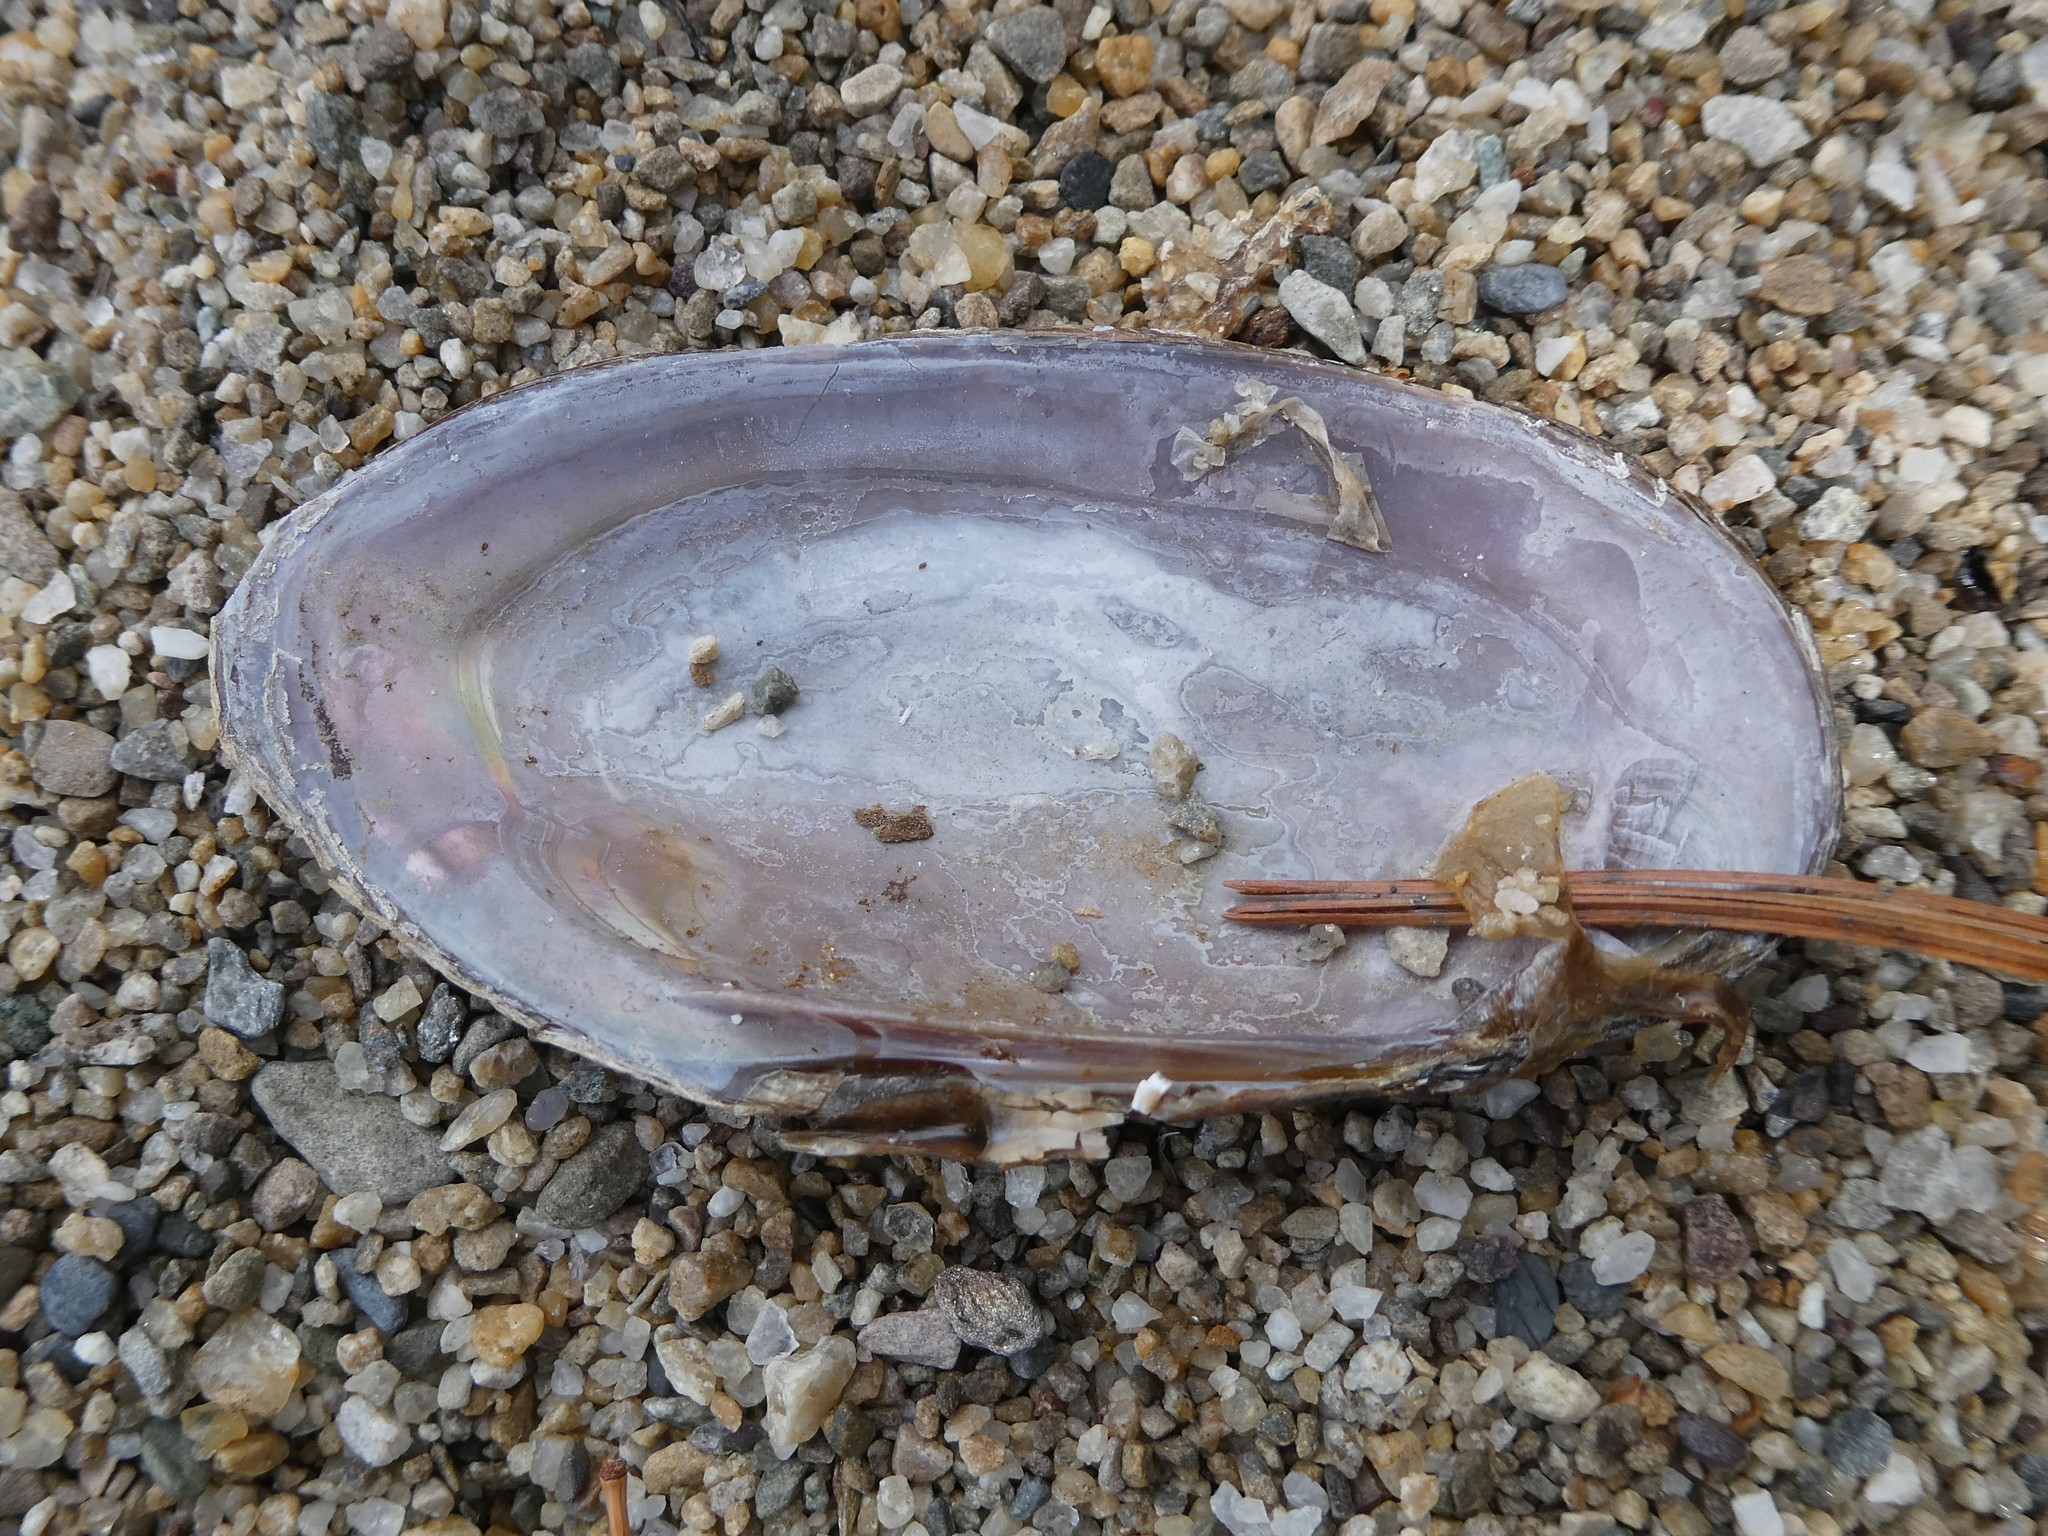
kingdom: Animalia
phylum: Mollusca
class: Bivalvia
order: Unionida
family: Unionidae
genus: Elliptio
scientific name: Elliptio complanata
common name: Eastern elliptio
